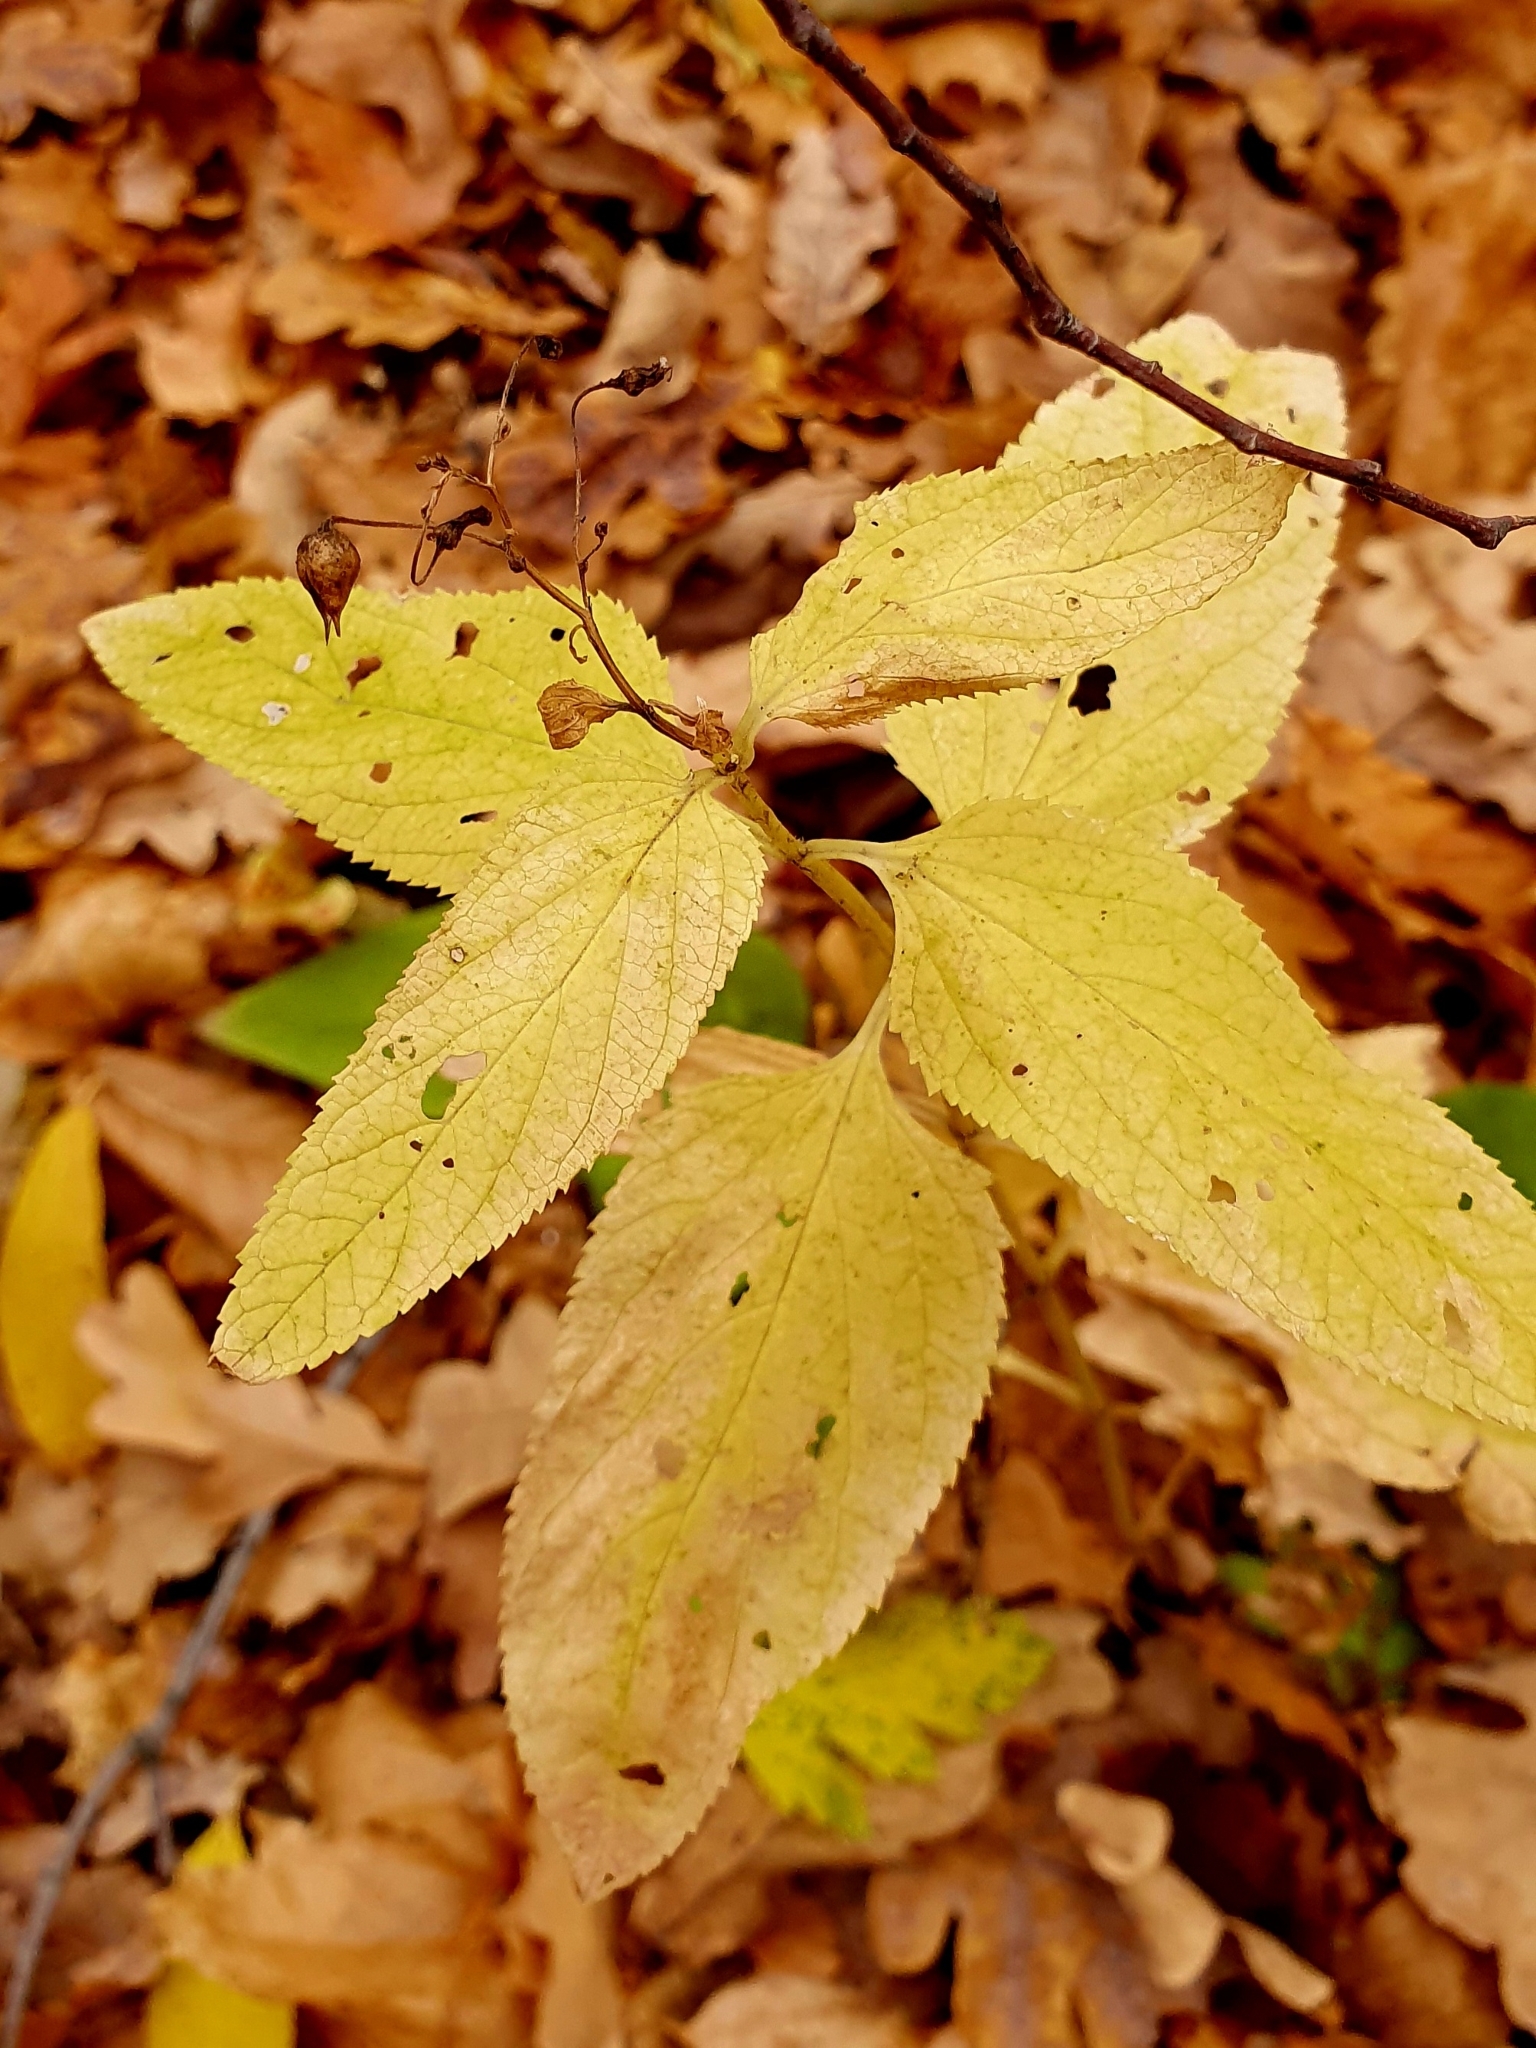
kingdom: Plantae
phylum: Tracheophyta
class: Magnoliopsida
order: Lamiales
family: Scrophulariaceae
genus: Scrophularia
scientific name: Scrophularia nodosa
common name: Common figwort
